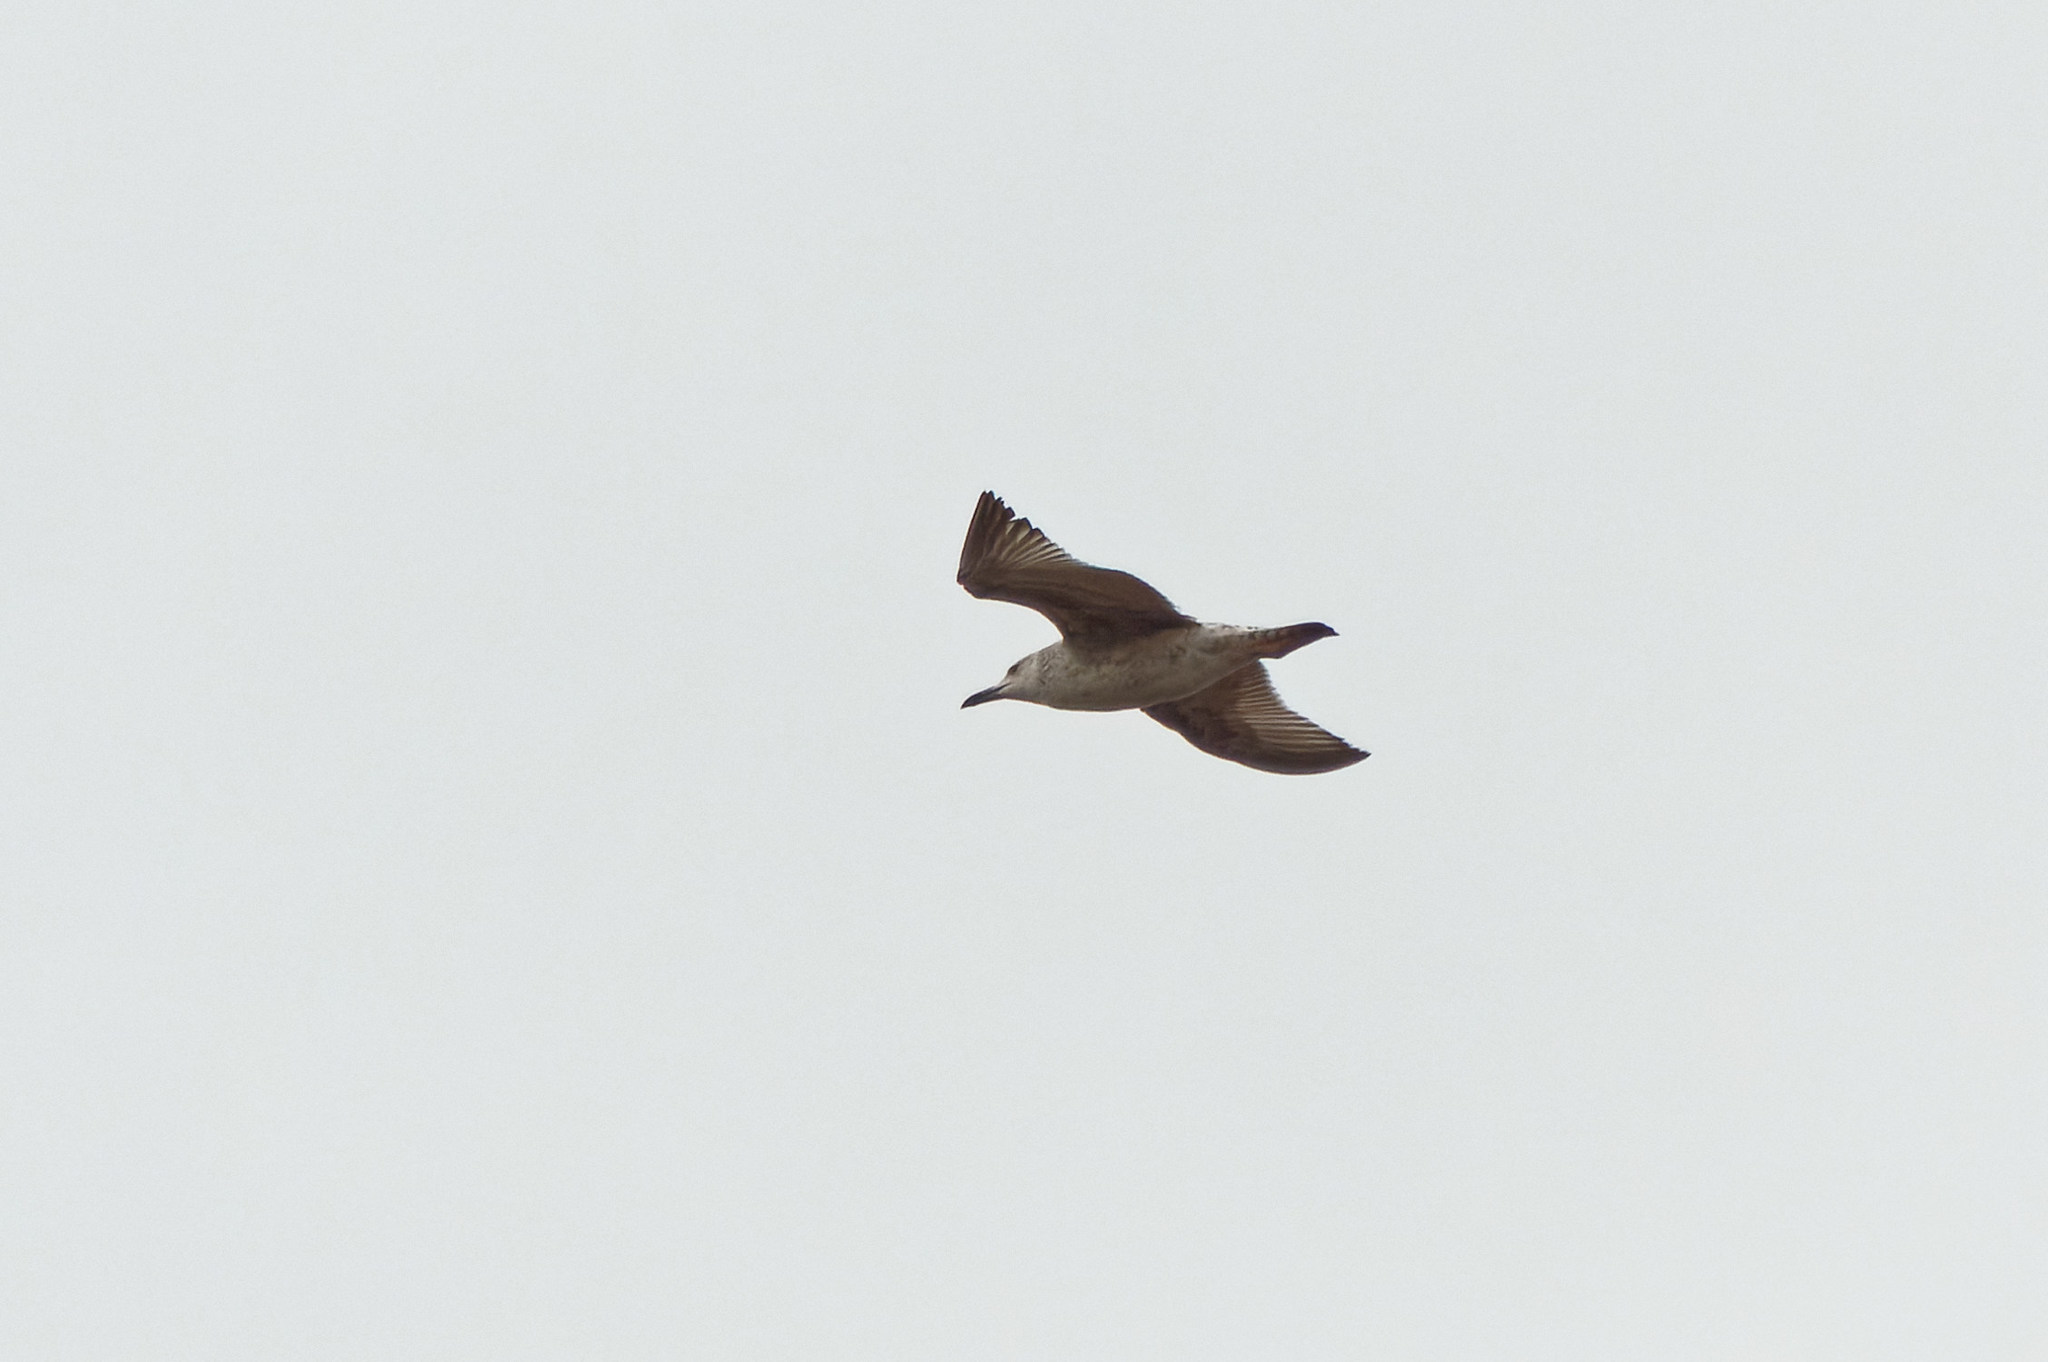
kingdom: Animalia
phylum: Chordata
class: Aves
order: Charadriiformes
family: Laridae
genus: Larus
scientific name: Larus cachinnans
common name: Caspian gull
